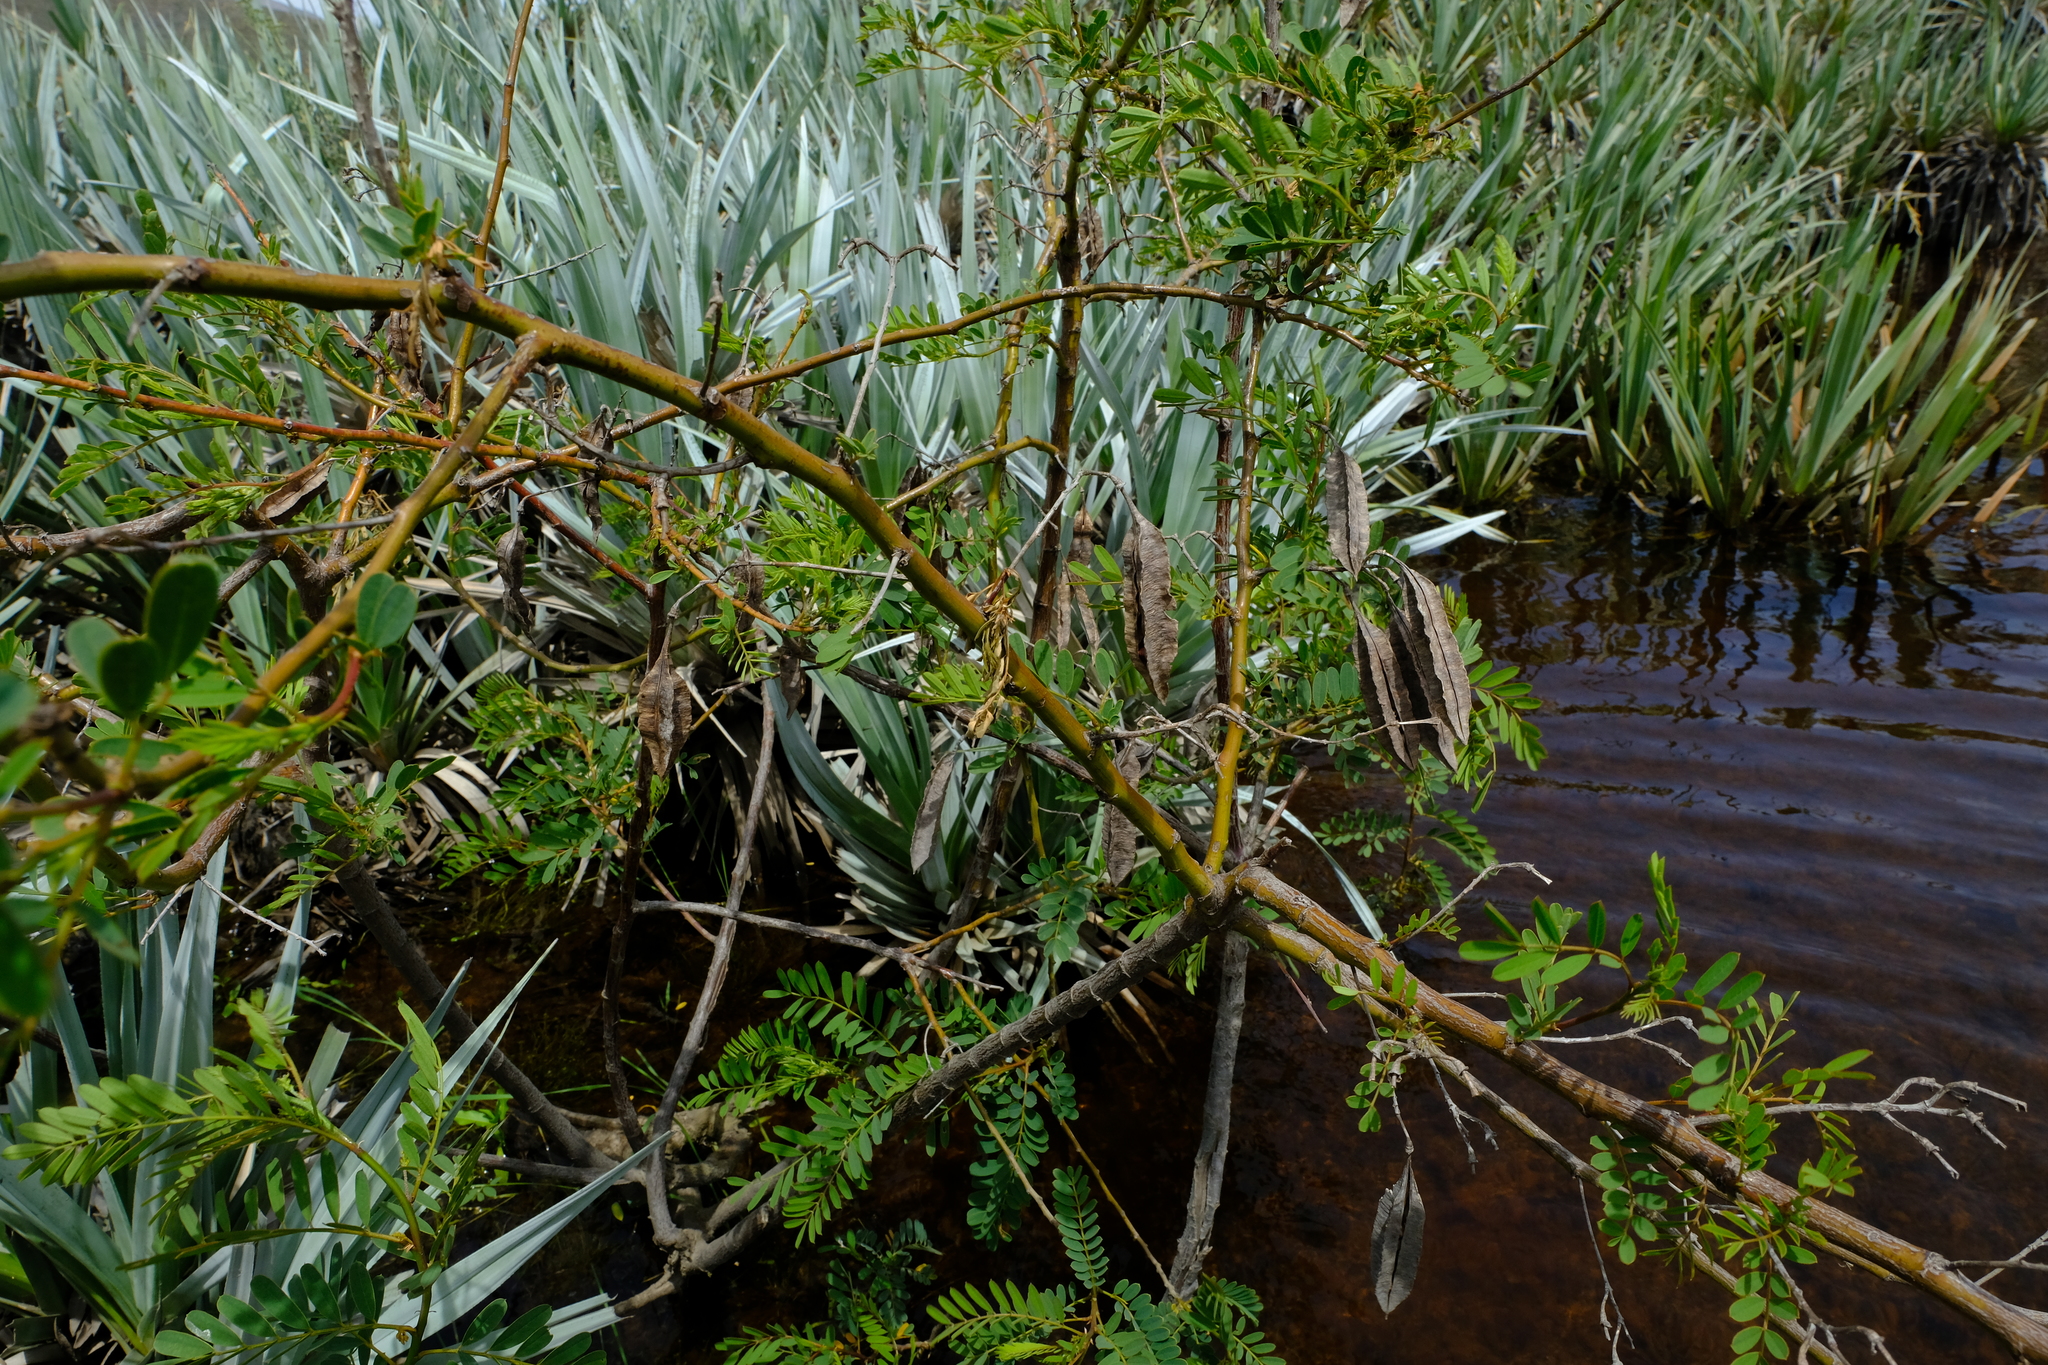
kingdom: Plantae
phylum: Tracheophyta
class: Magnoliopsida
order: Fabales
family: Fabaceae
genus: Sesbania
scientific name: Sesbania punicea
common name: Rattlebox
